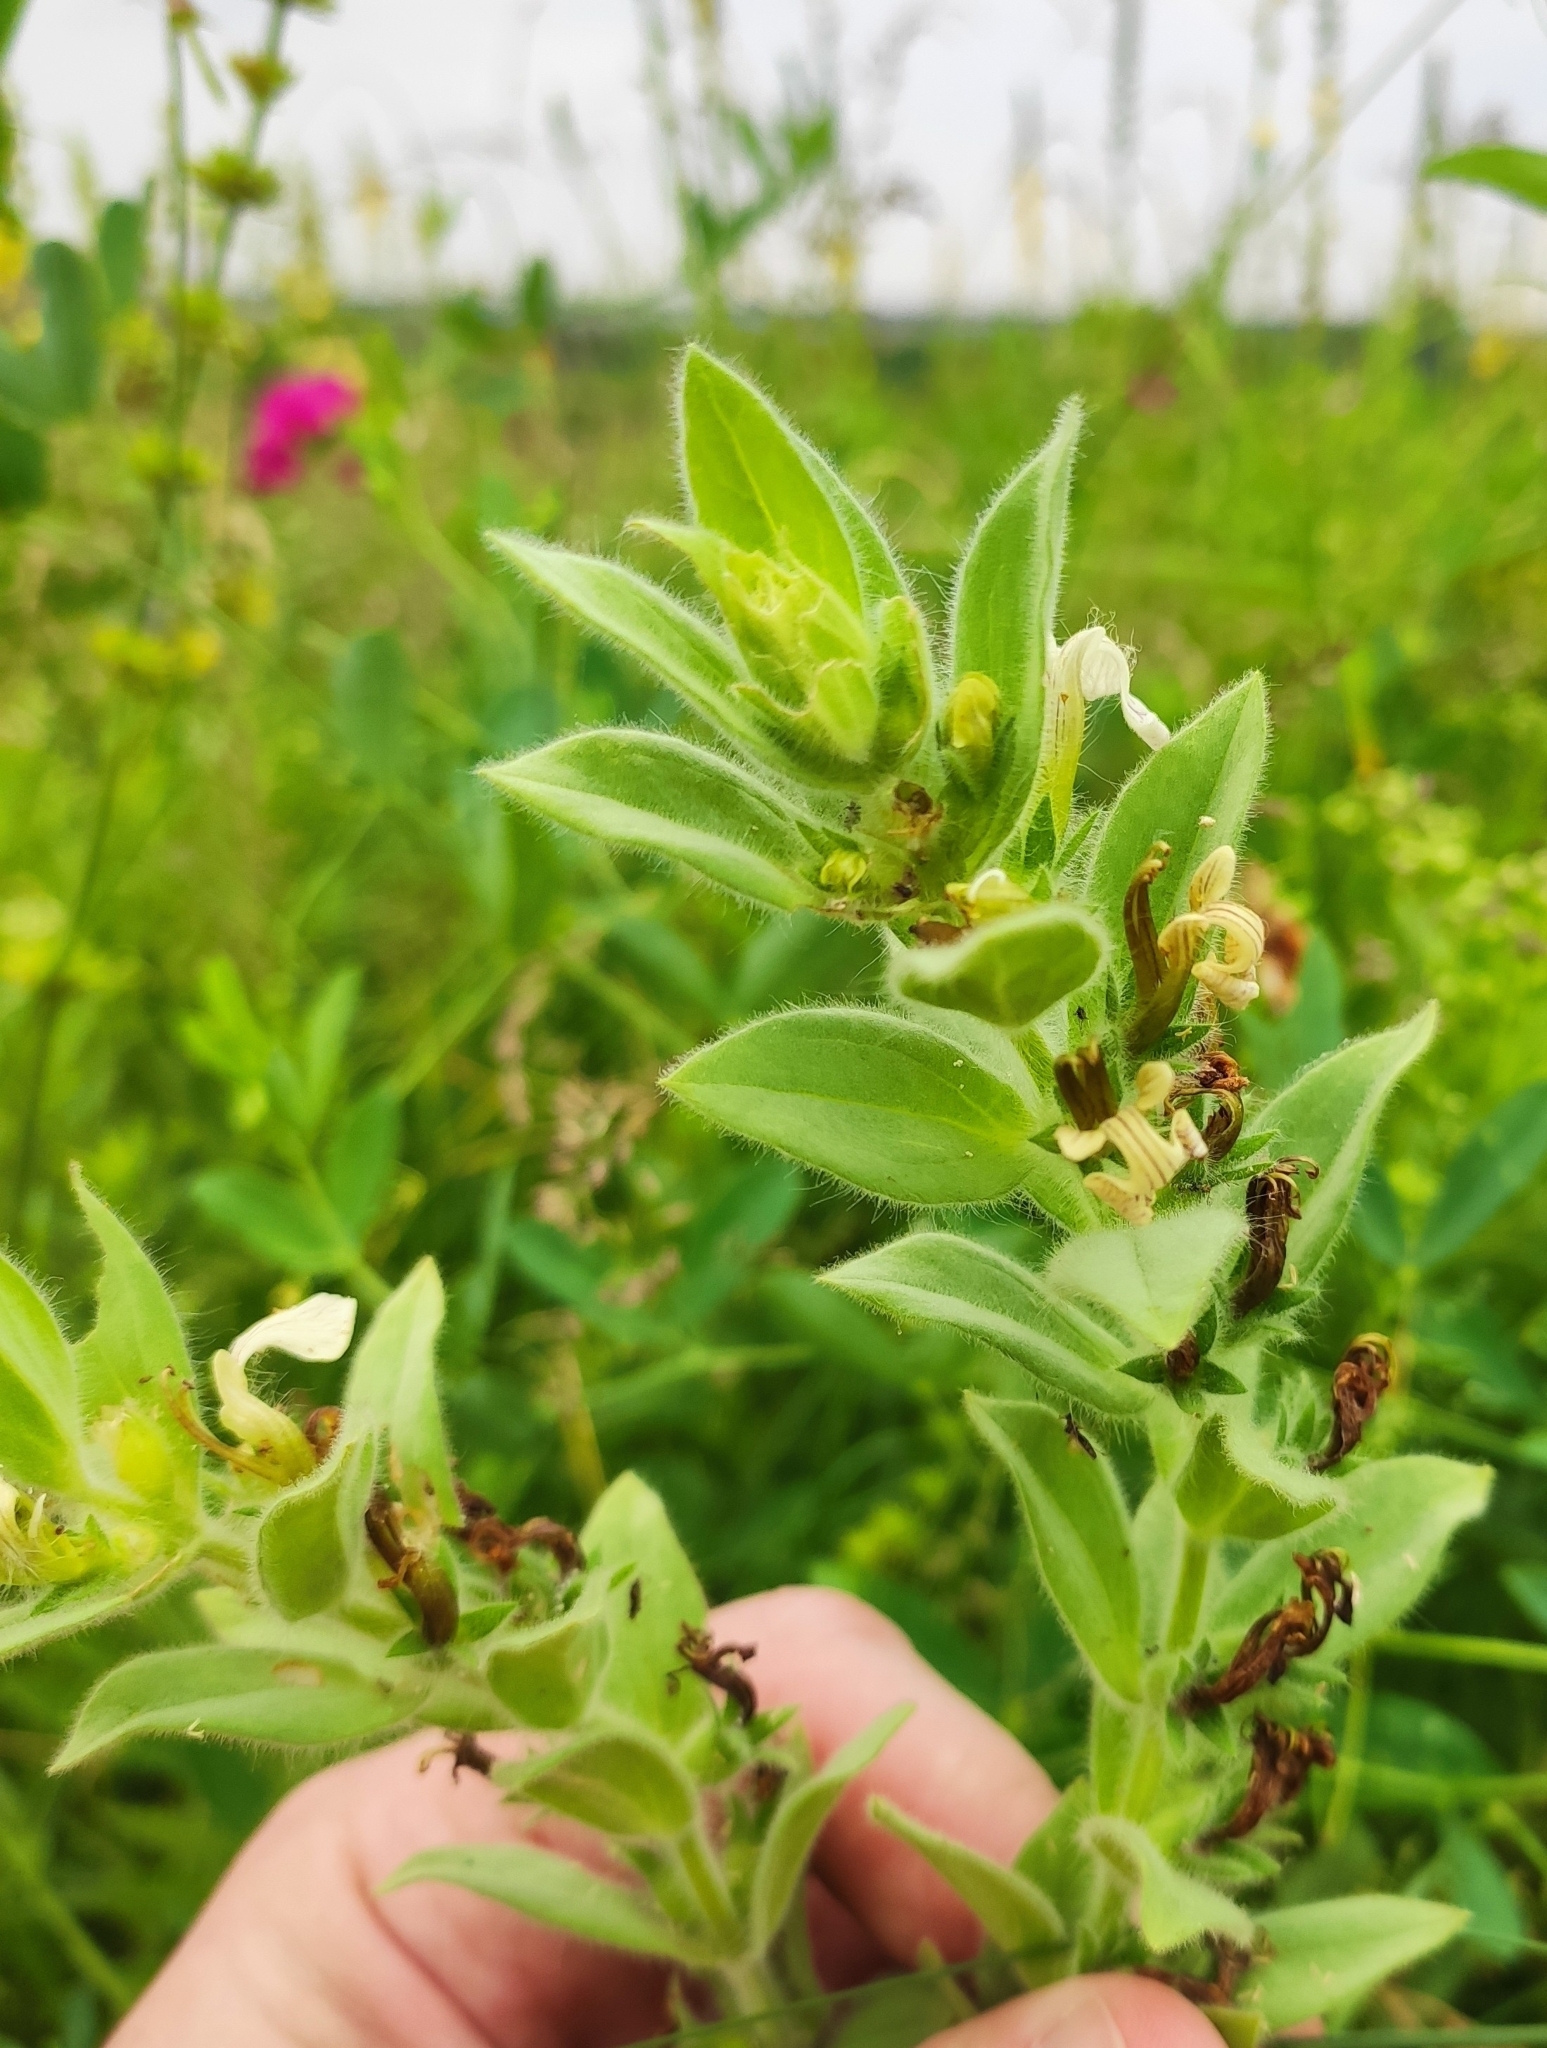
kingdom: Plantae
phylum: Tracheophyta
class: Magnoliopsida
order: Lamiales
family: Lamiaceae
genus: Ajuga
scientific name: Ajuga laxmannii
